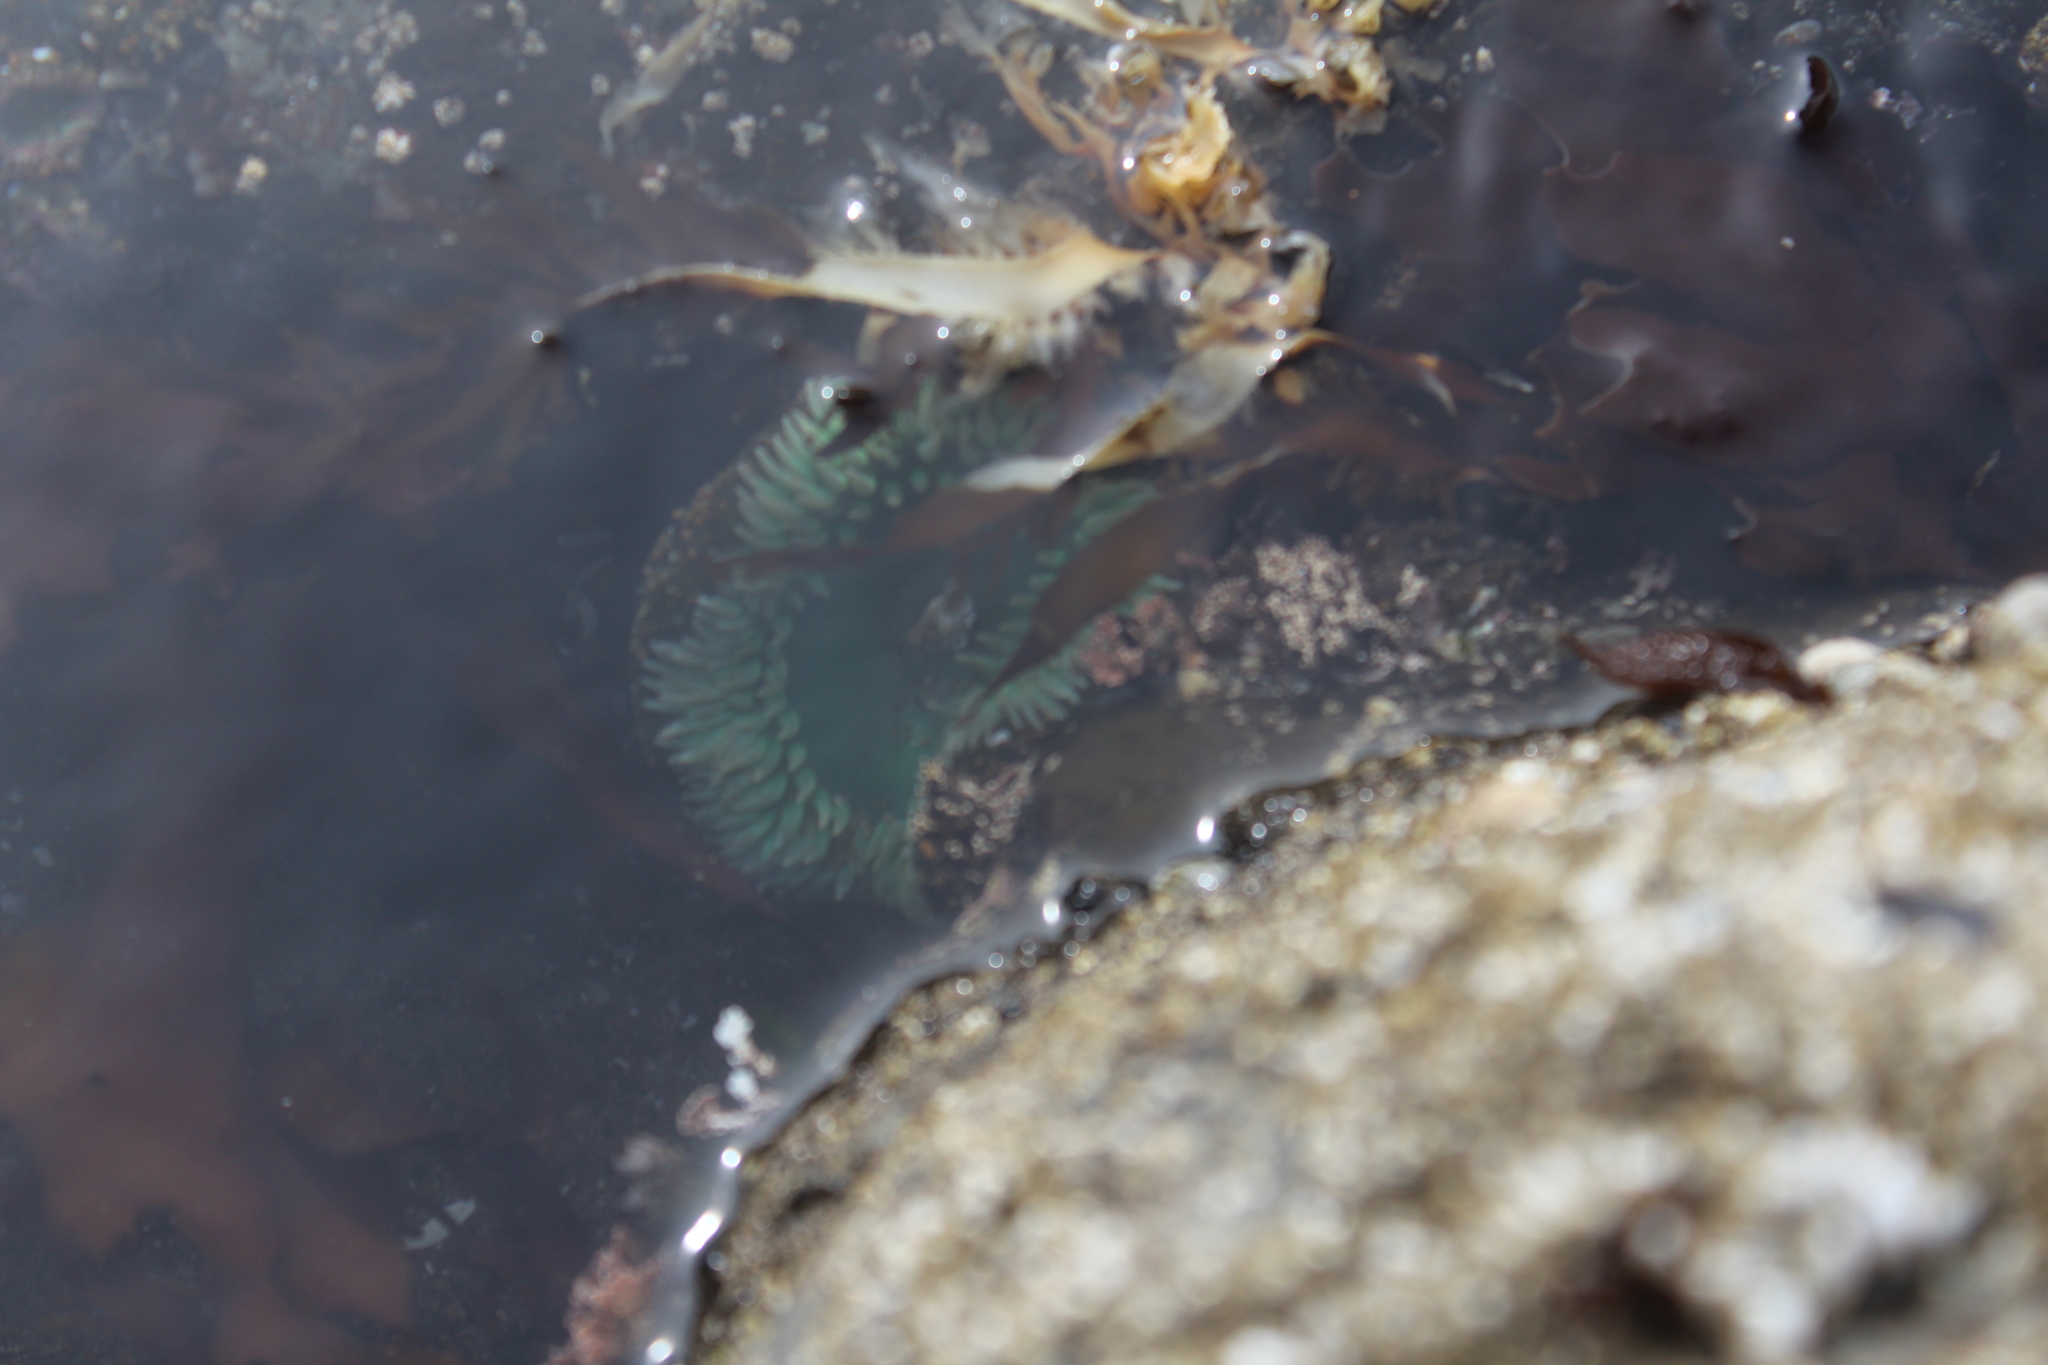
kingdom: Animalia
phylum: Cnidaria
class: Anthozoa
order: Actiniaria
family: Actiniidae
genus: Anthopleura
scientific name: Anthopleura xanthogrammica
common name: Giant green anemone
